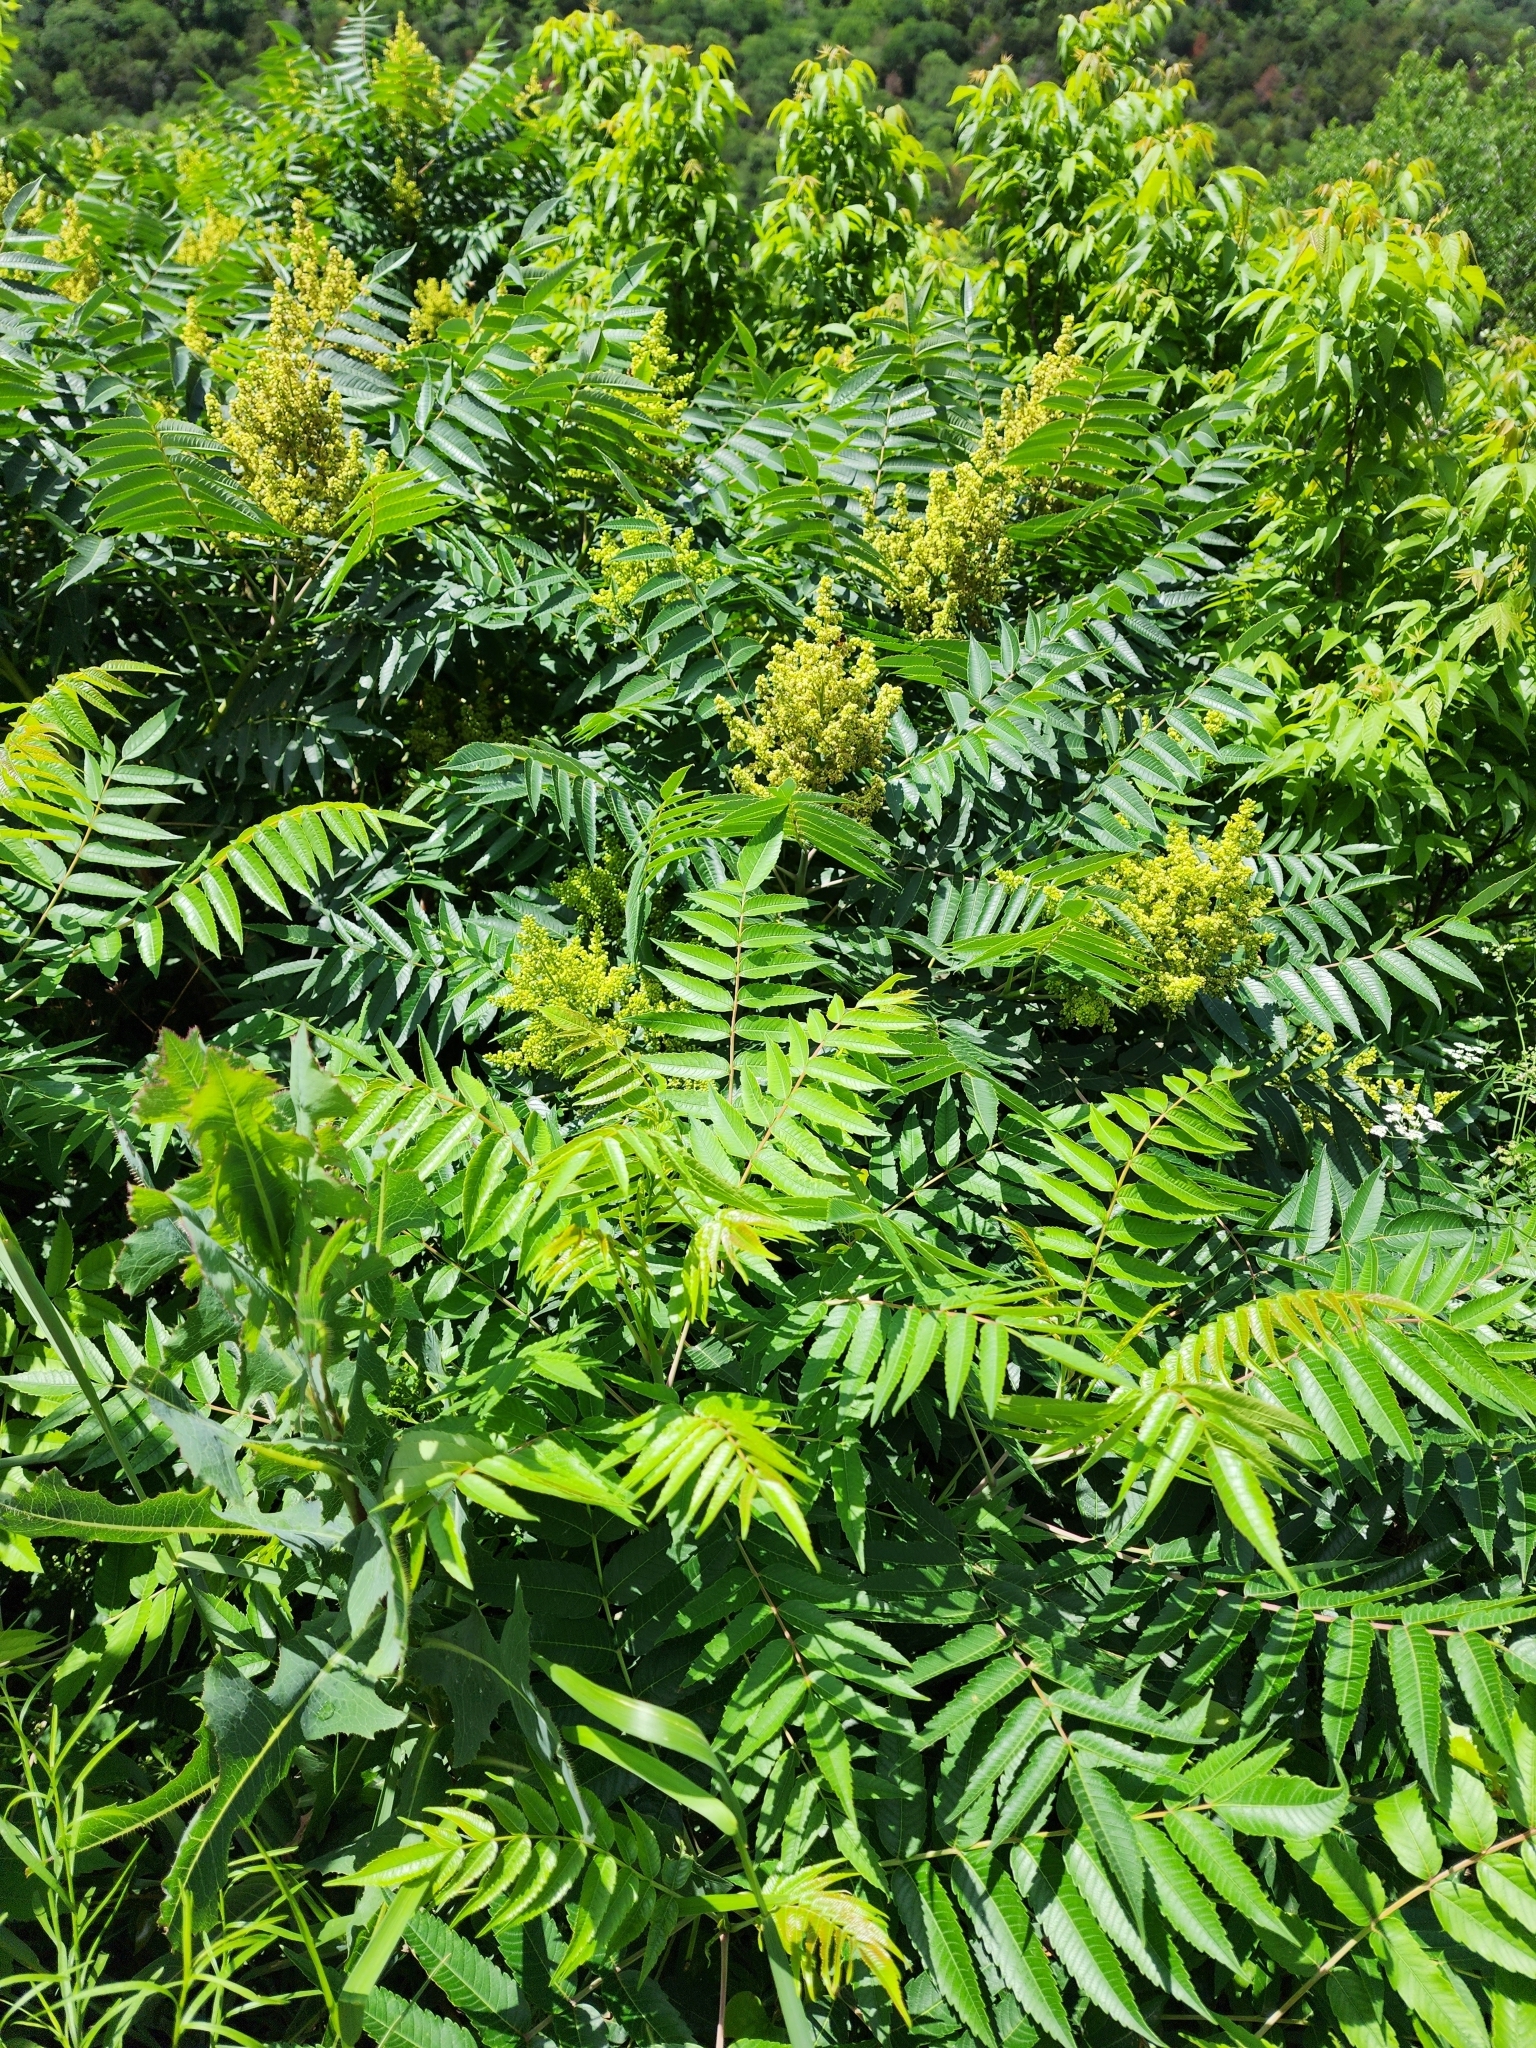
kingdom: Plantae
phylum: Tracheophyta
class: Magnoliopsida
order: Sapindales
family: Anacardiaceae
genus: Rhus
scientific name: Rhus glabra
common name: Scarlet sumac
